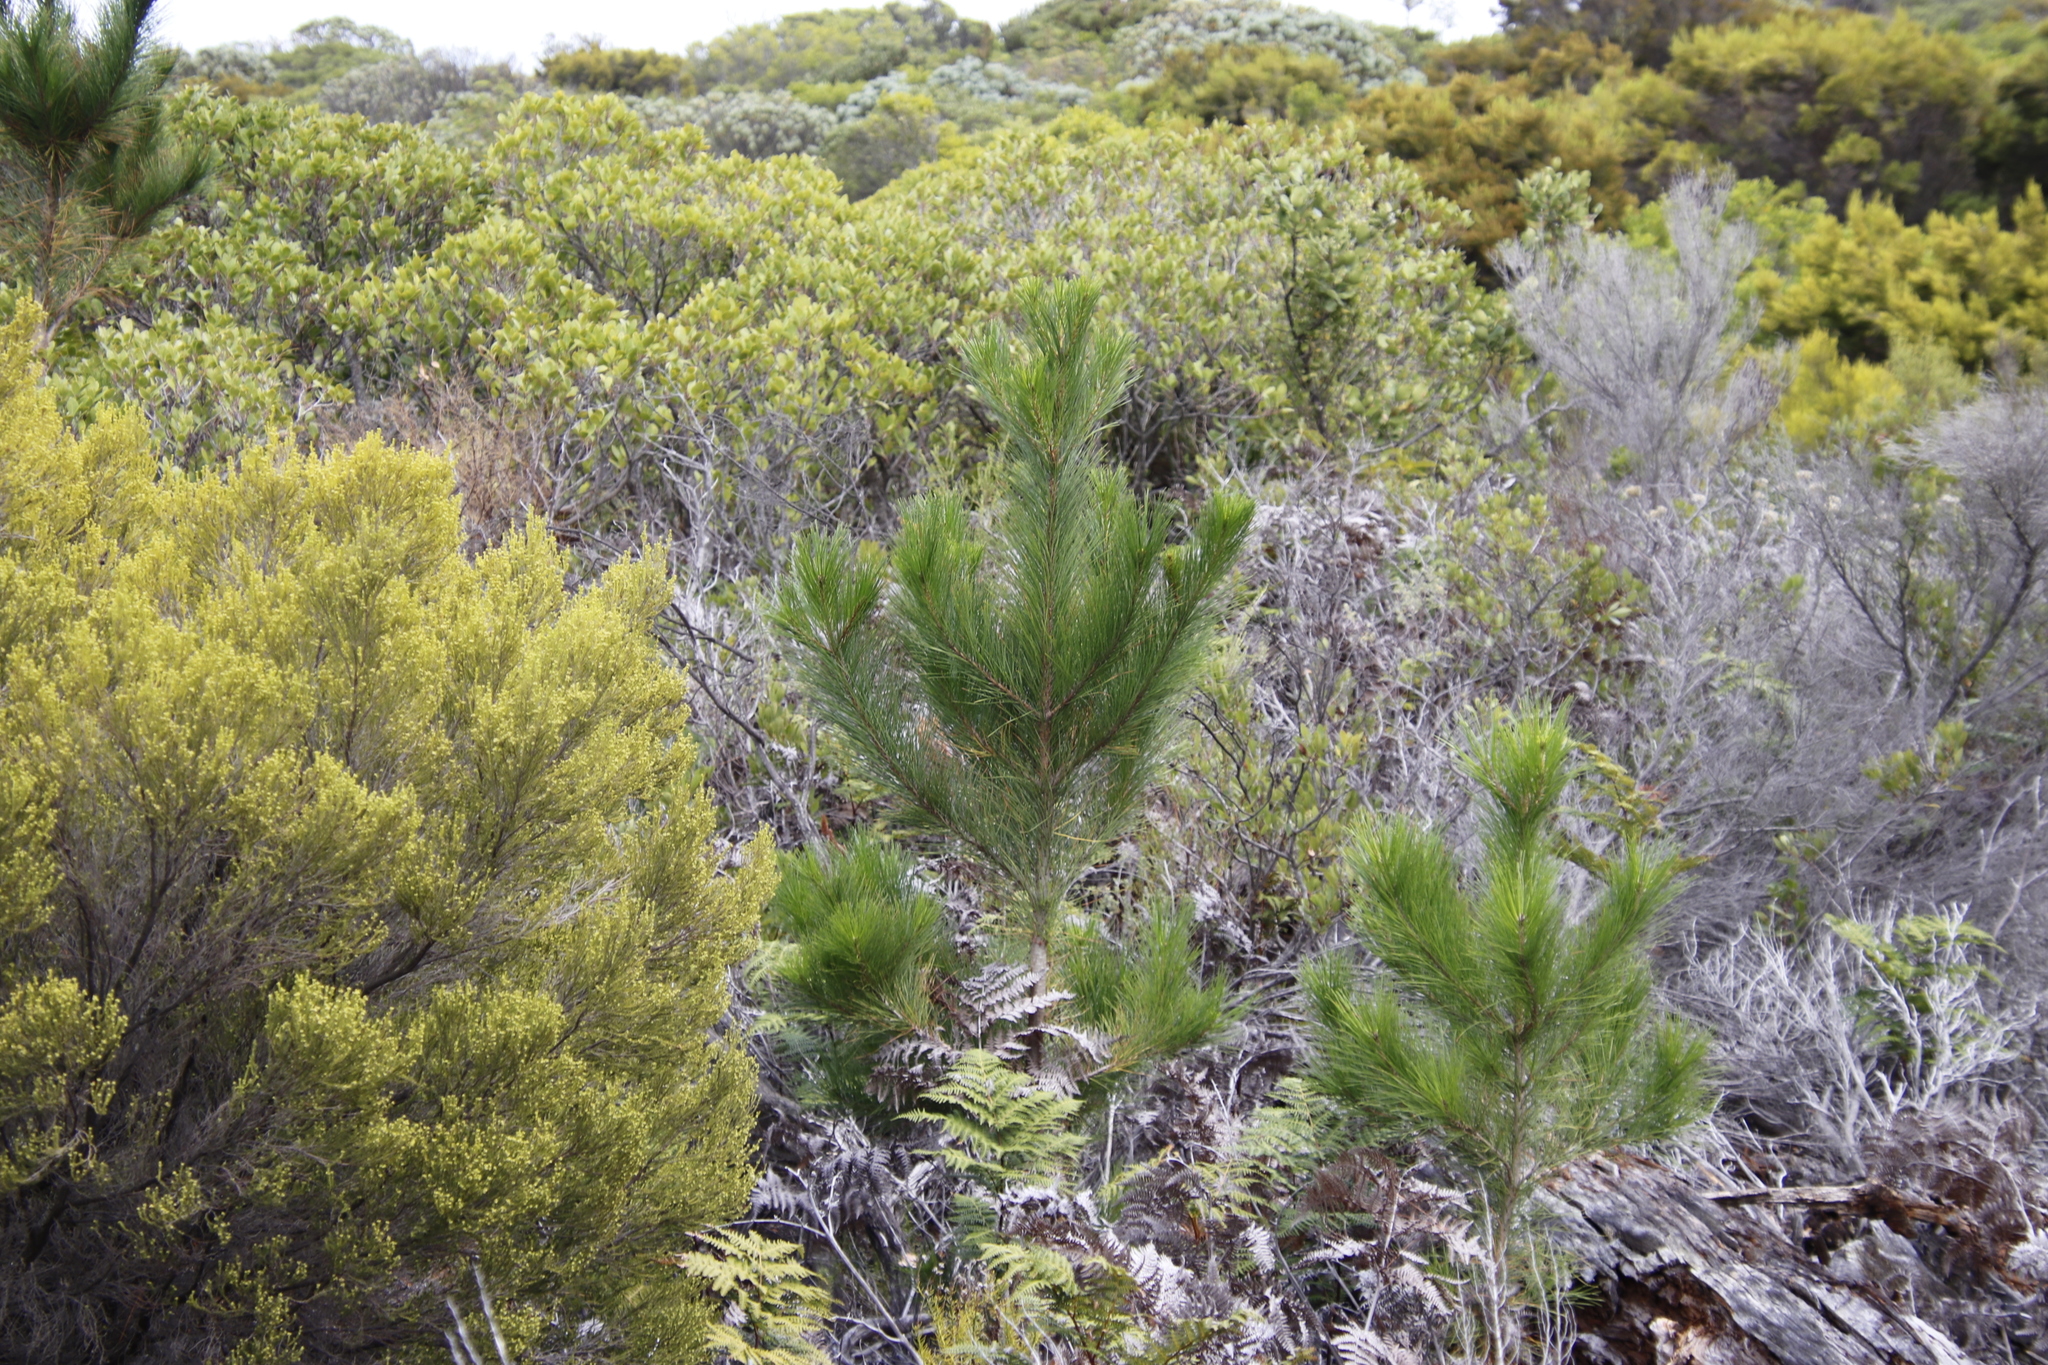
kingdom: Plantae
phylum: Tracheophyta
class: Pinopsida
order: Pinales
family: Pinaceae
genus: Pinus
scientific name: Pinus radiata
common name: Monterey pine
